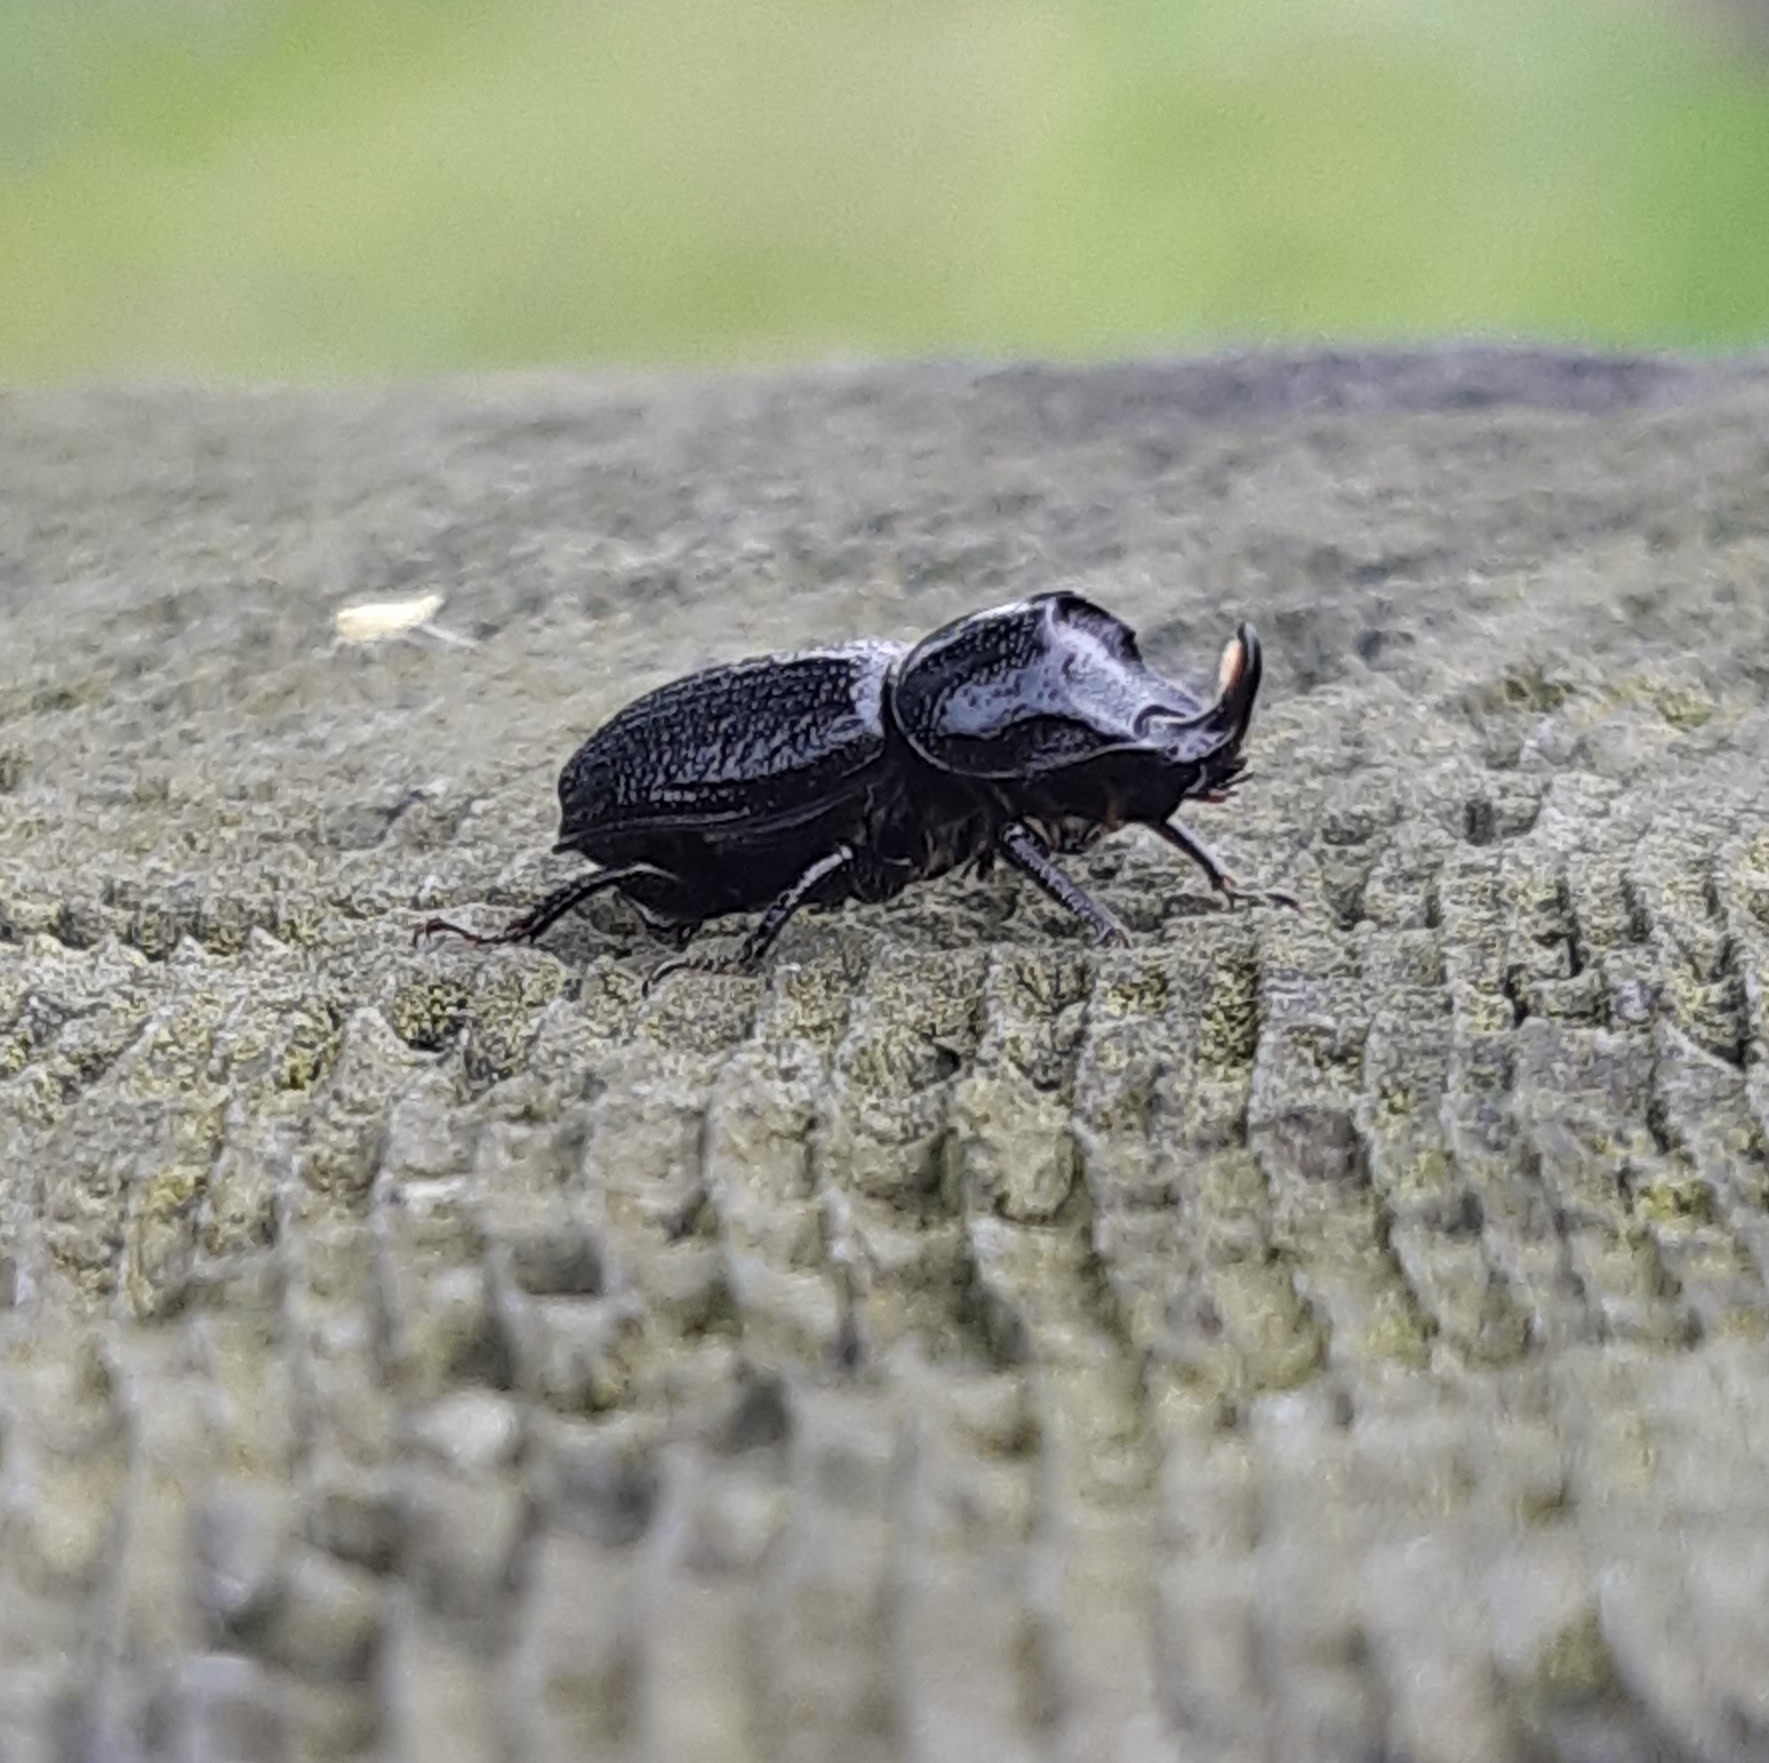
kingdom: Animalia
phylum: Arthropoda
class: Insecta
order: Coleoptera
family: Lucanidae
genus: Sinodendron
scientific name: Sinodendron cylindricum
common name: Rhinoceros beetle
